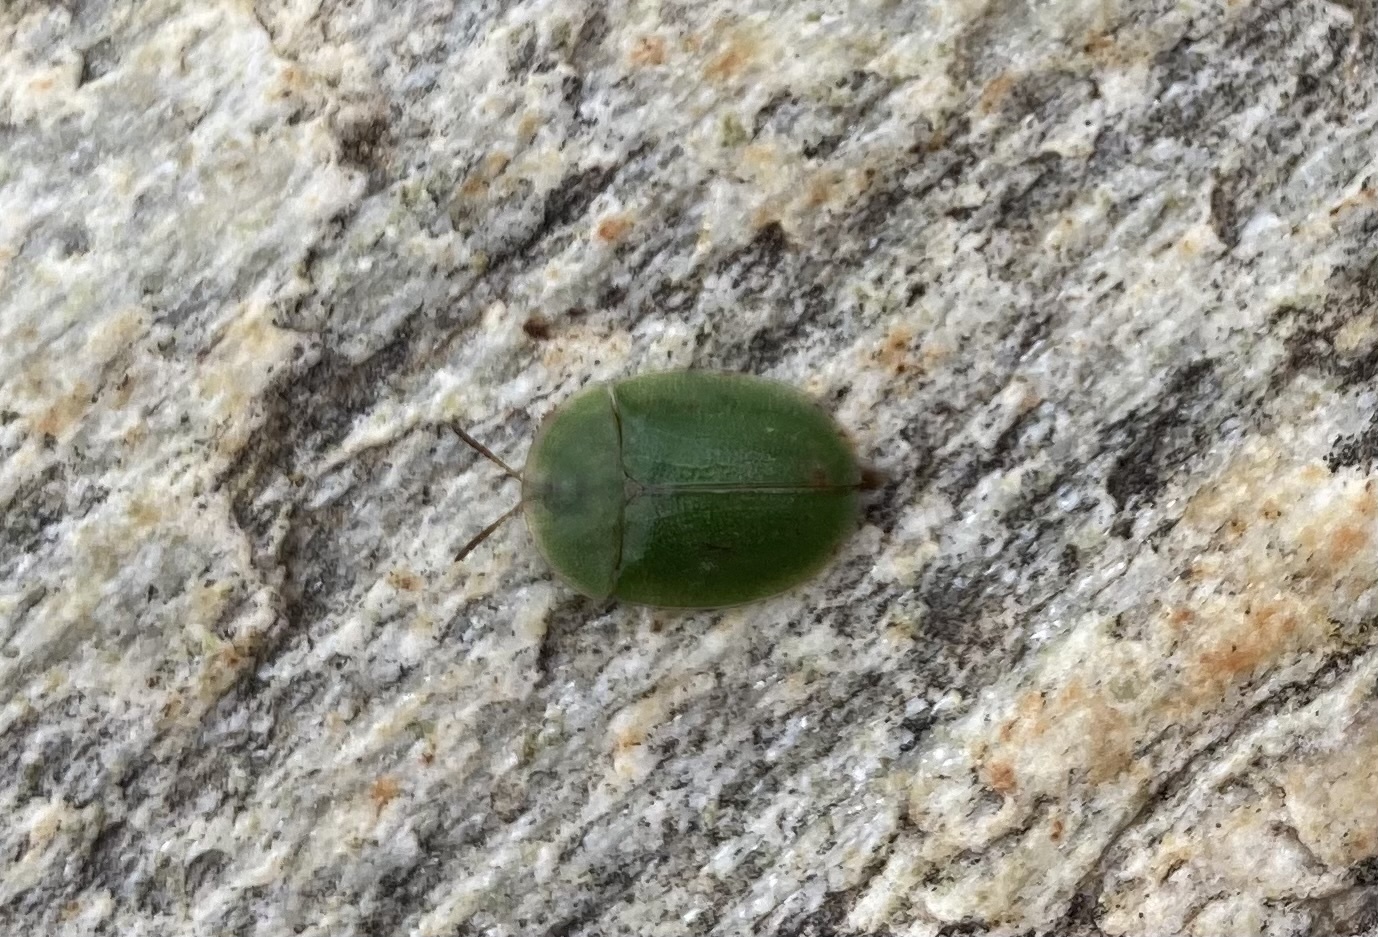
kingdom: Animalia
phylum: Arthropoda
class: Insecta
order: Coleoptera
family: Chrysomelidae
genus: Cassida
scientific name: Cassida rubiginosa
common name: Thistle tortoise beetle
